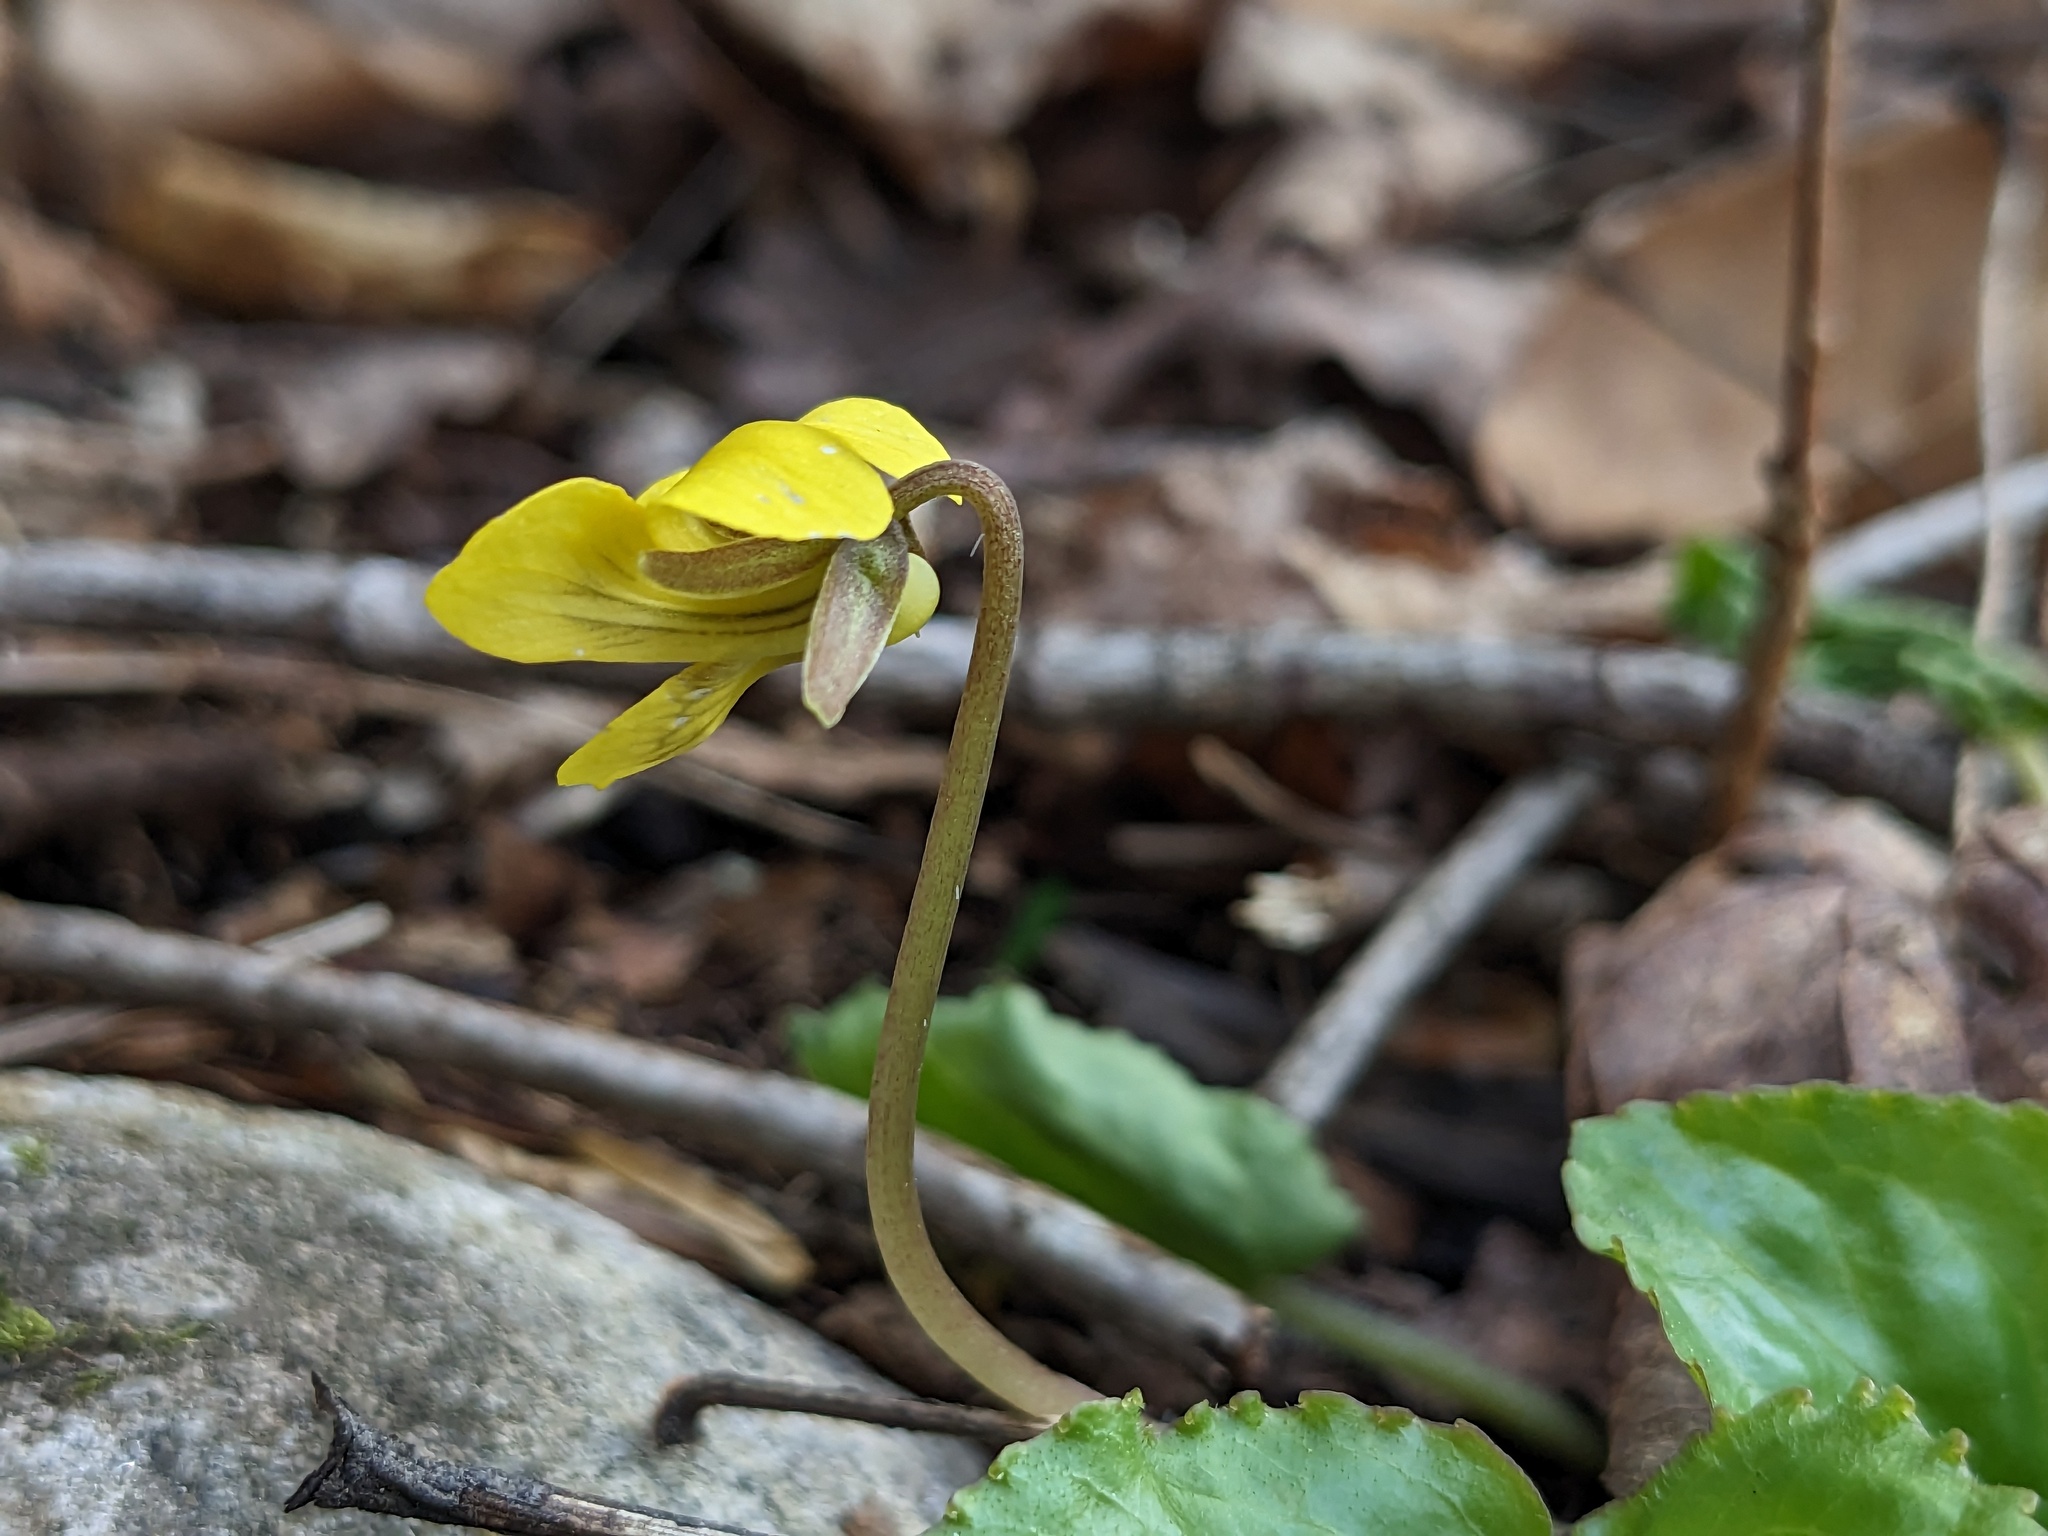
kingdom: Plantae
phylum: Tracheophyta
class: Magnoliopsida
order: Malpighiales
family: Violaceae
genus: Viola
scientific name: Viola rotundifolia
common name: Early yellow violet
